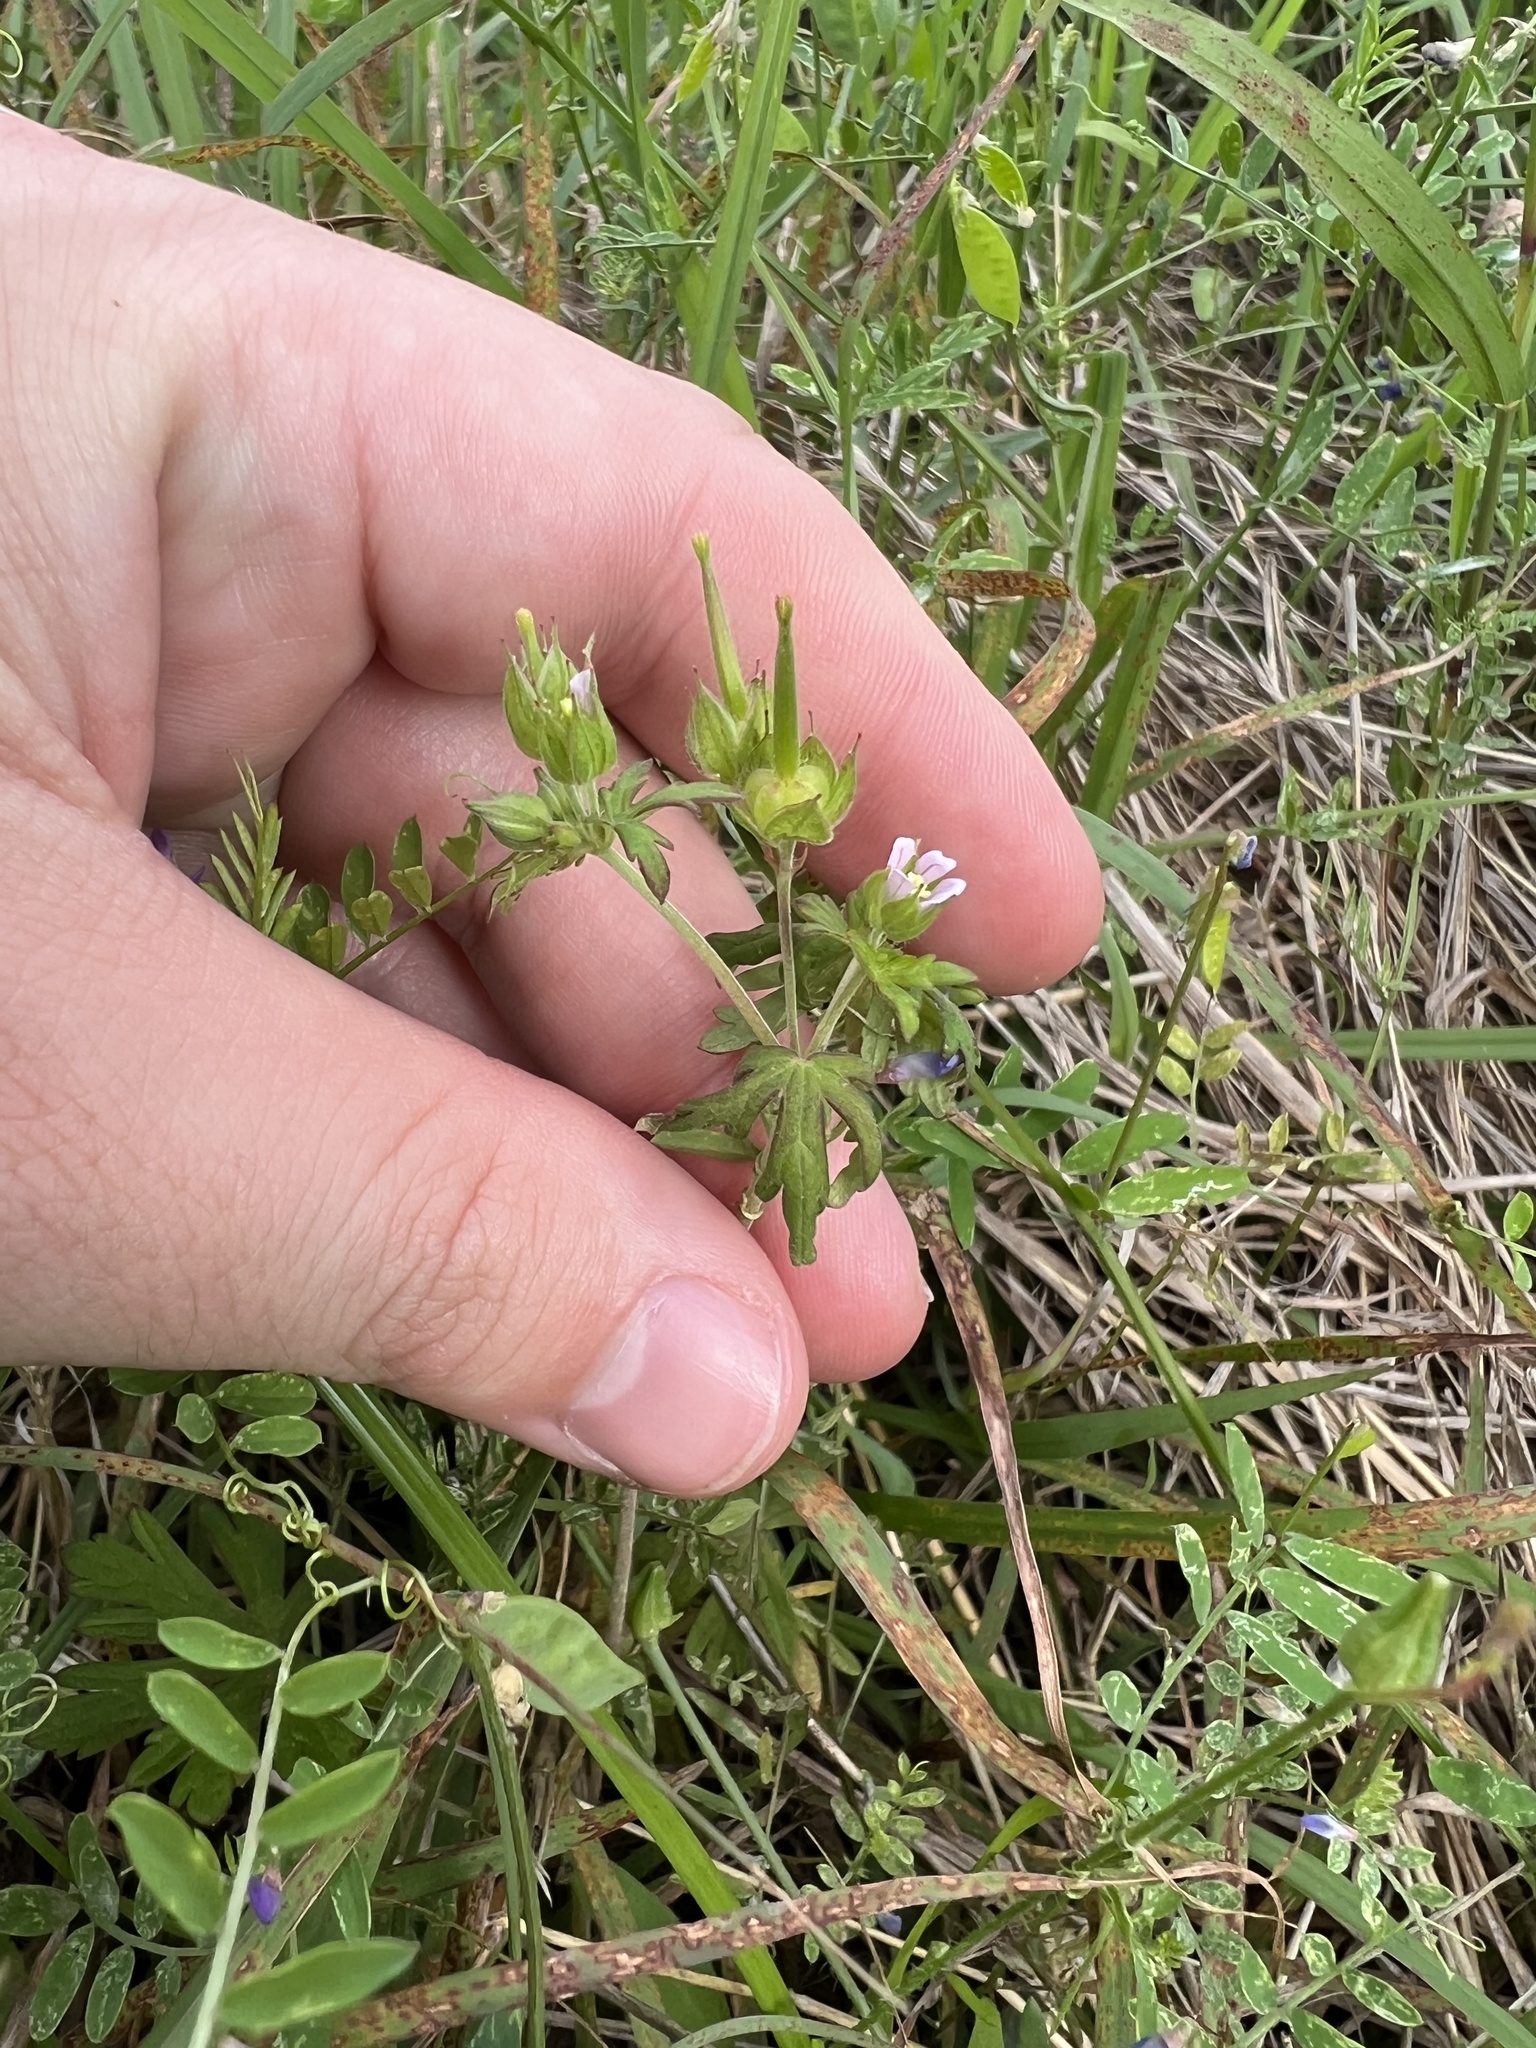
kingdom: Plantae
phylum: Tracheophyta
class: Magnoliopsida
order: Geraniales
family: Geraniaceae
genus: Geranium
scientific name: Geranium carolinianum
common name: Carolina crane's-bill
